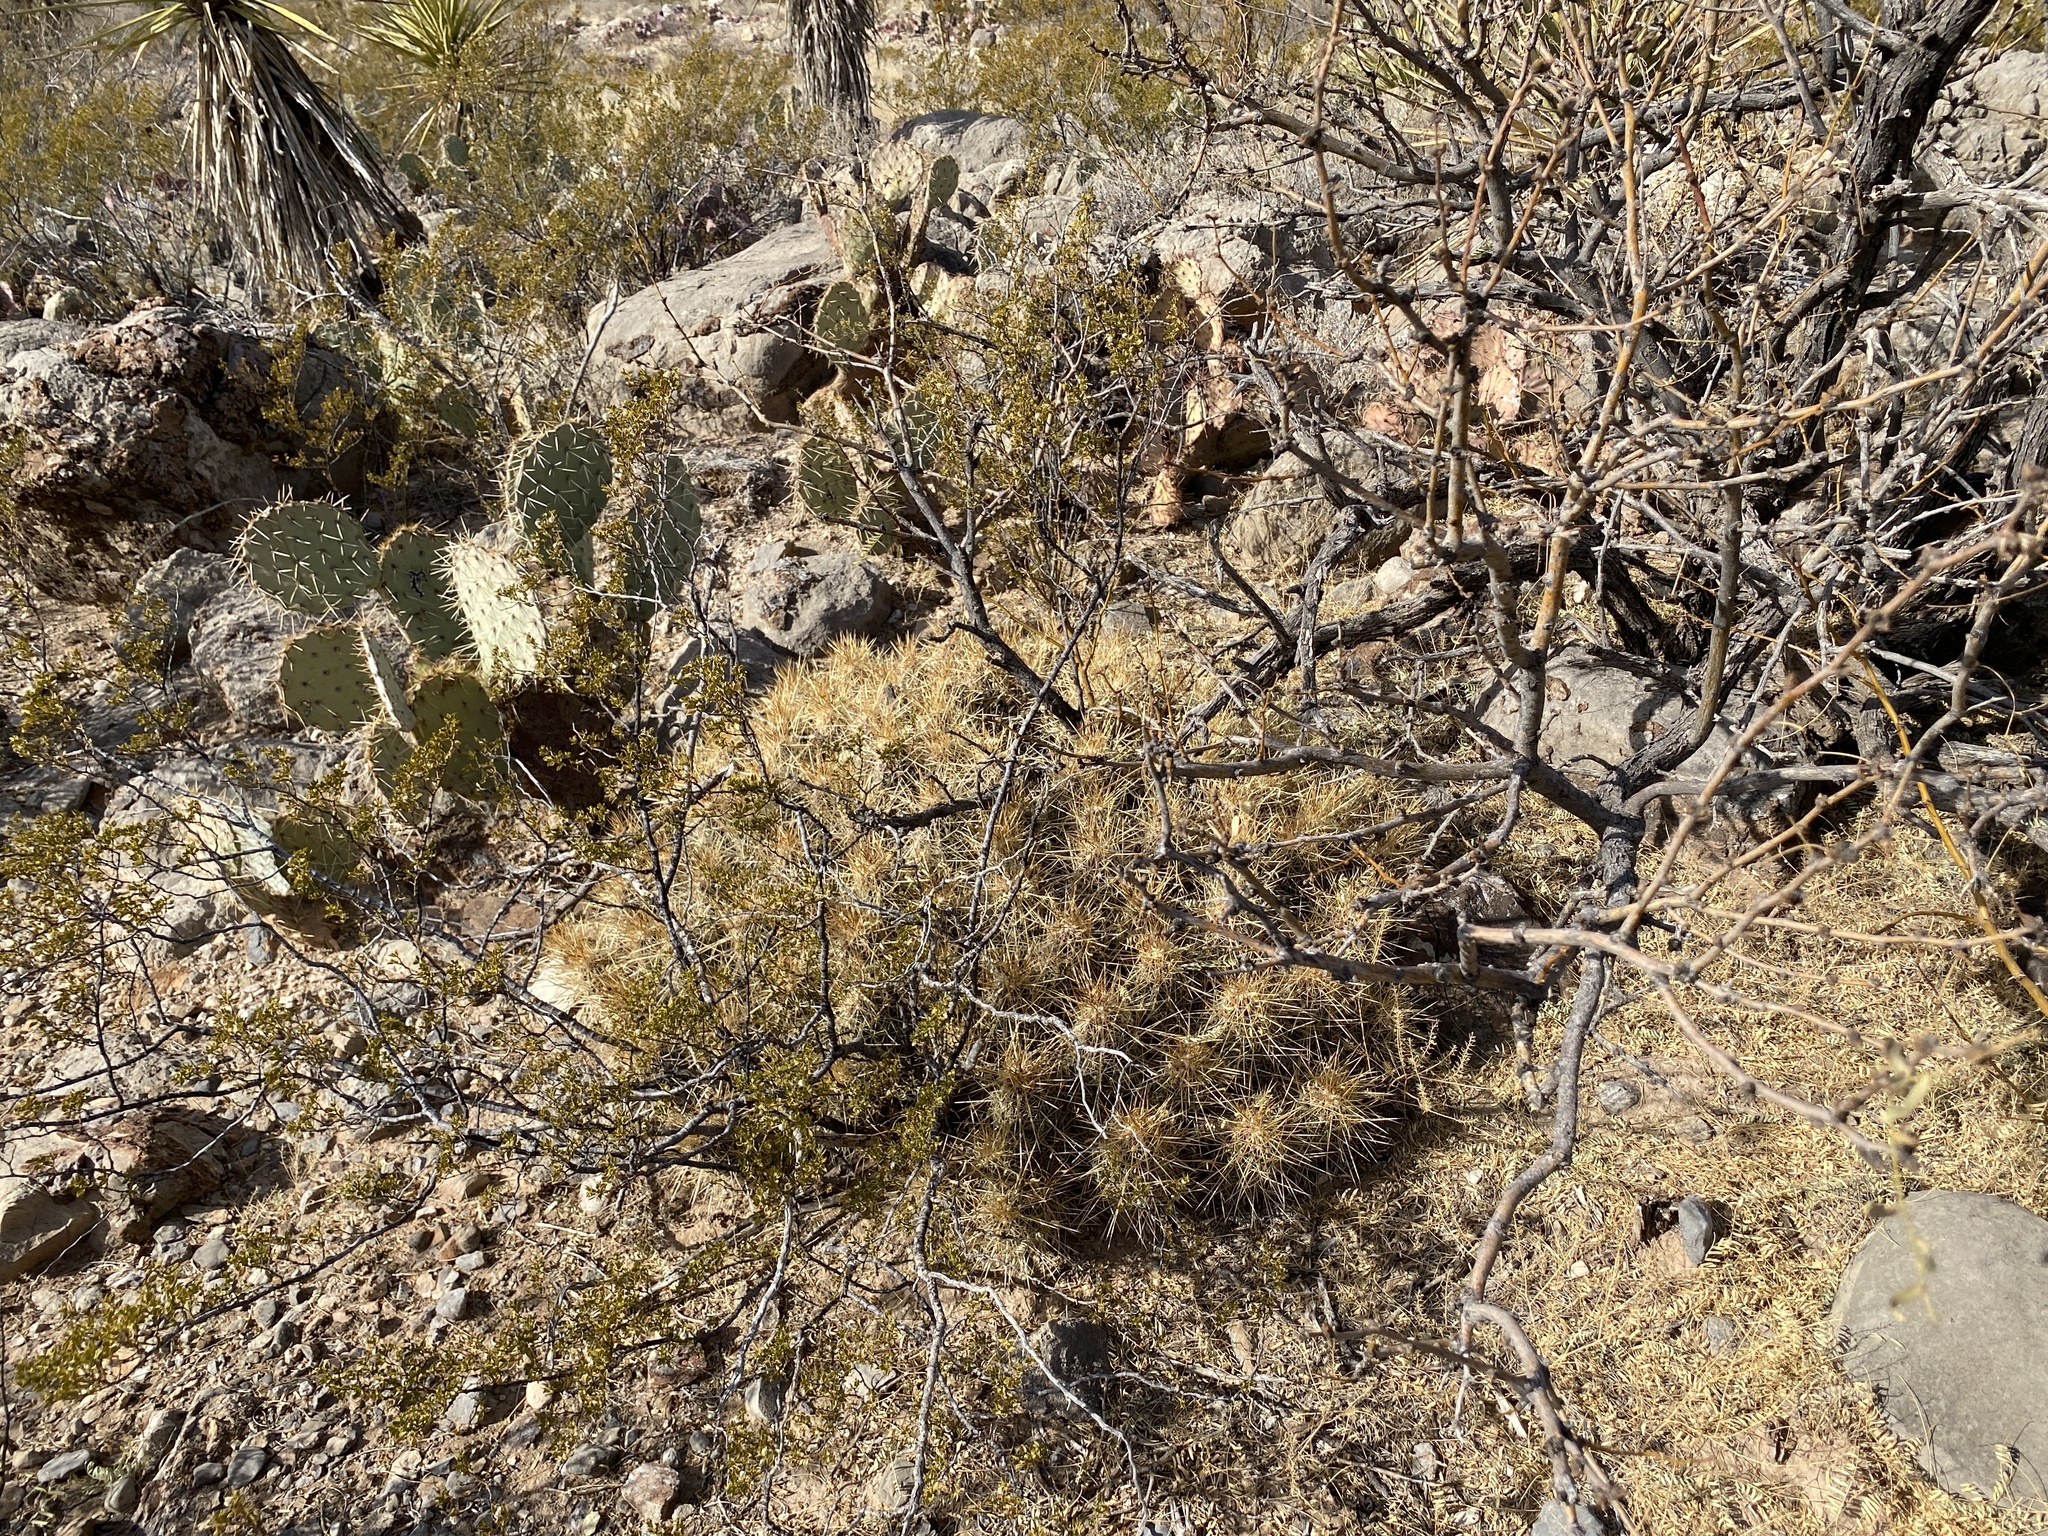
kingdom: Plantae
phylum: Tracheophyta
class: Magnoliopsida
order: Caryophyllales
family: Cactaceae
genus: Echinocereus
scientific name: Echinocereus stramineus
